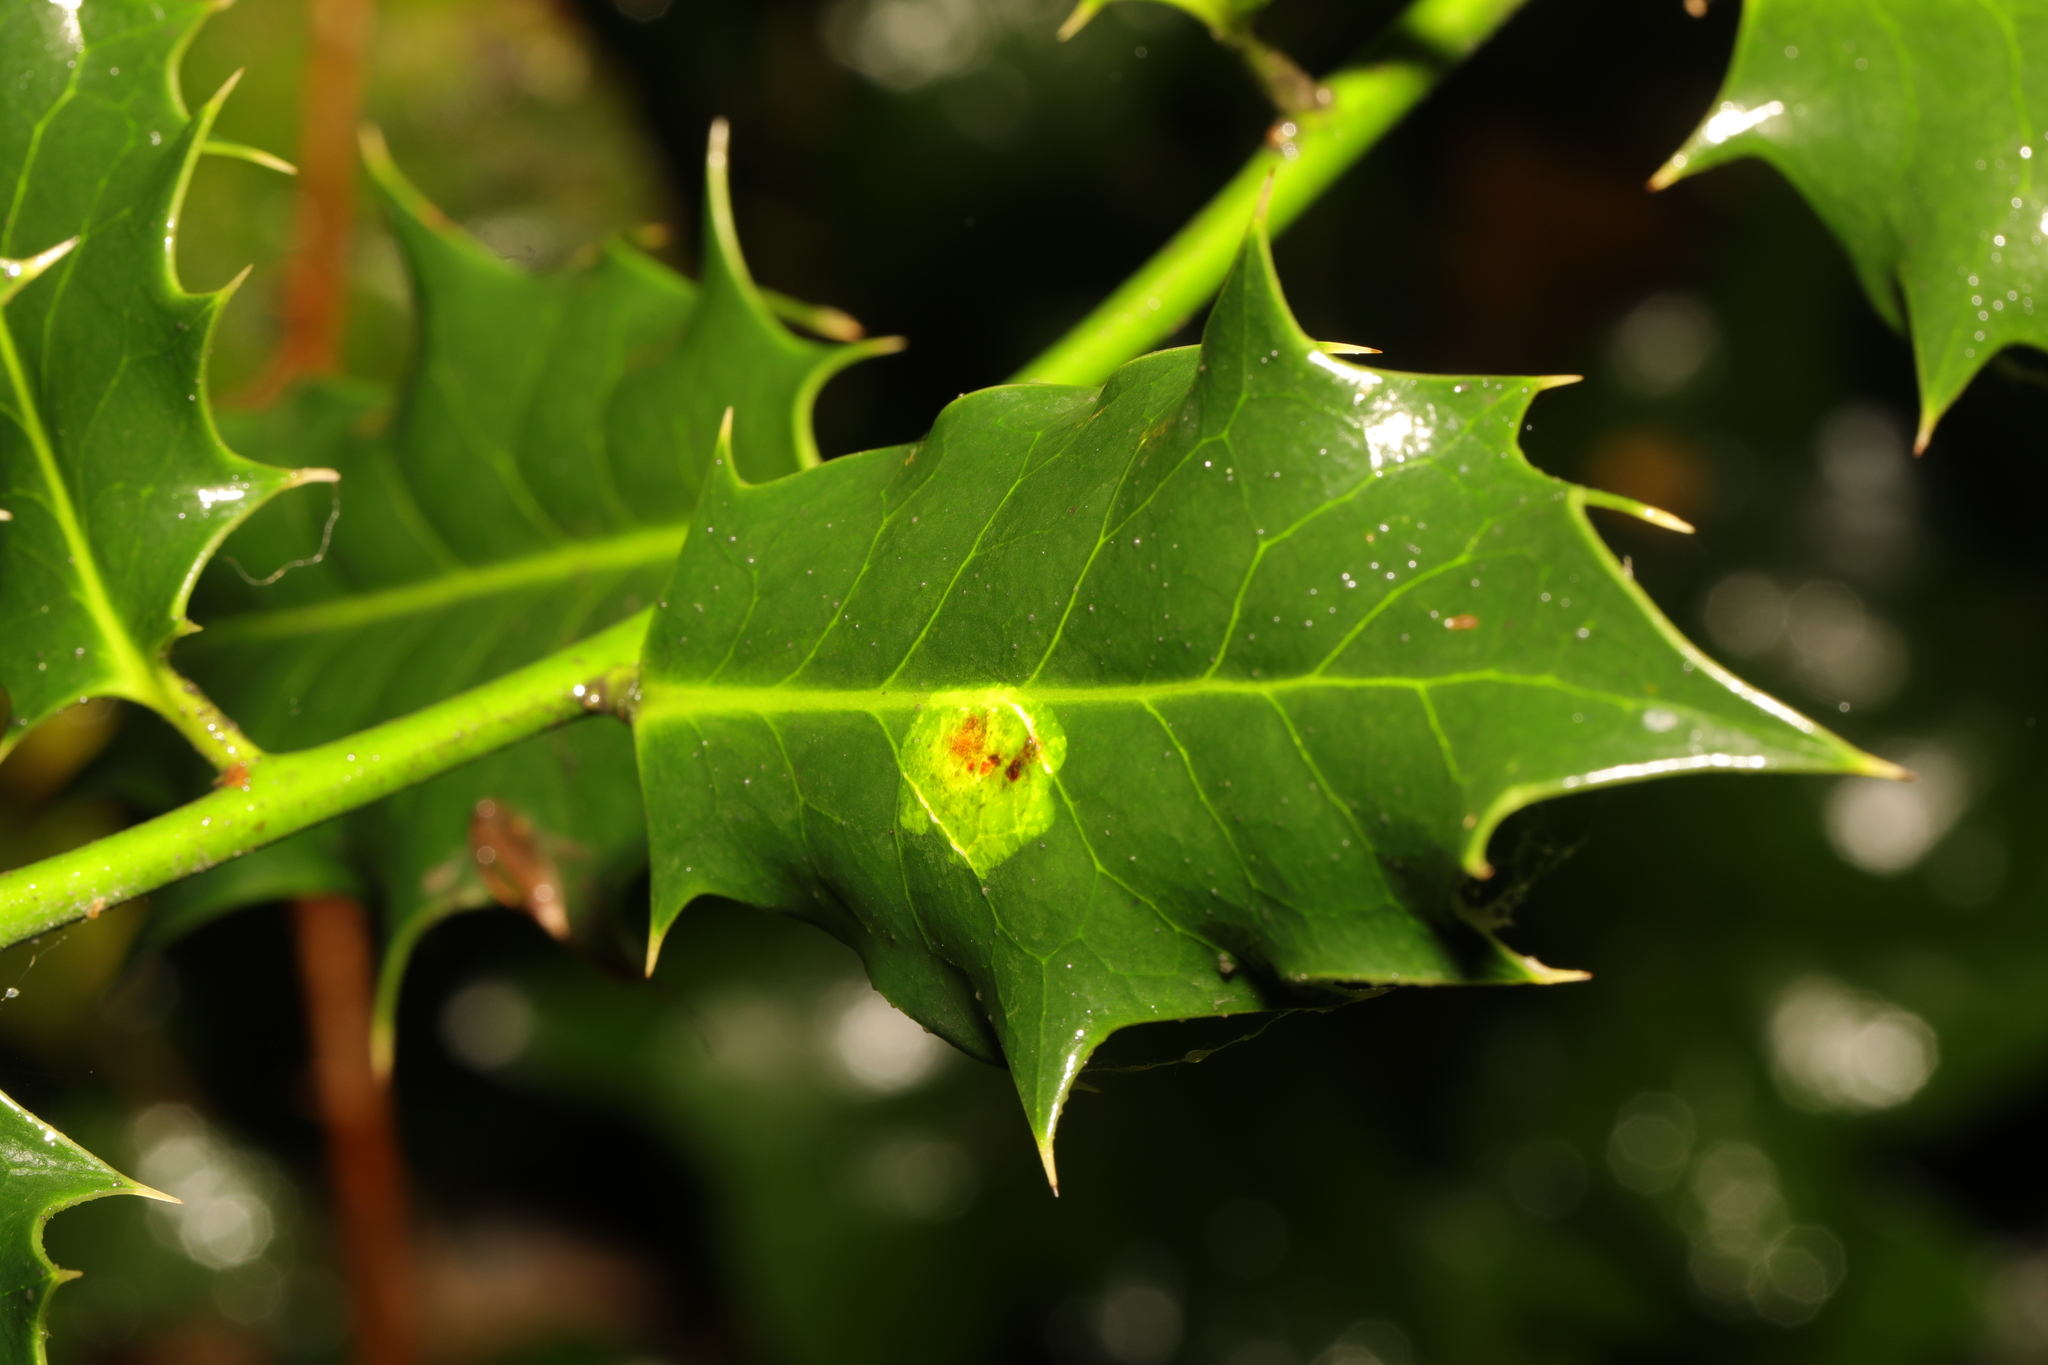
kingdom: Animalia
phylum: Arthropoda
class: Insecta
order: Diptera
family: Agromyzidae
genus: Phytomyza
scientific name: Phytomyza ilicis
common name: Holly leafminer
